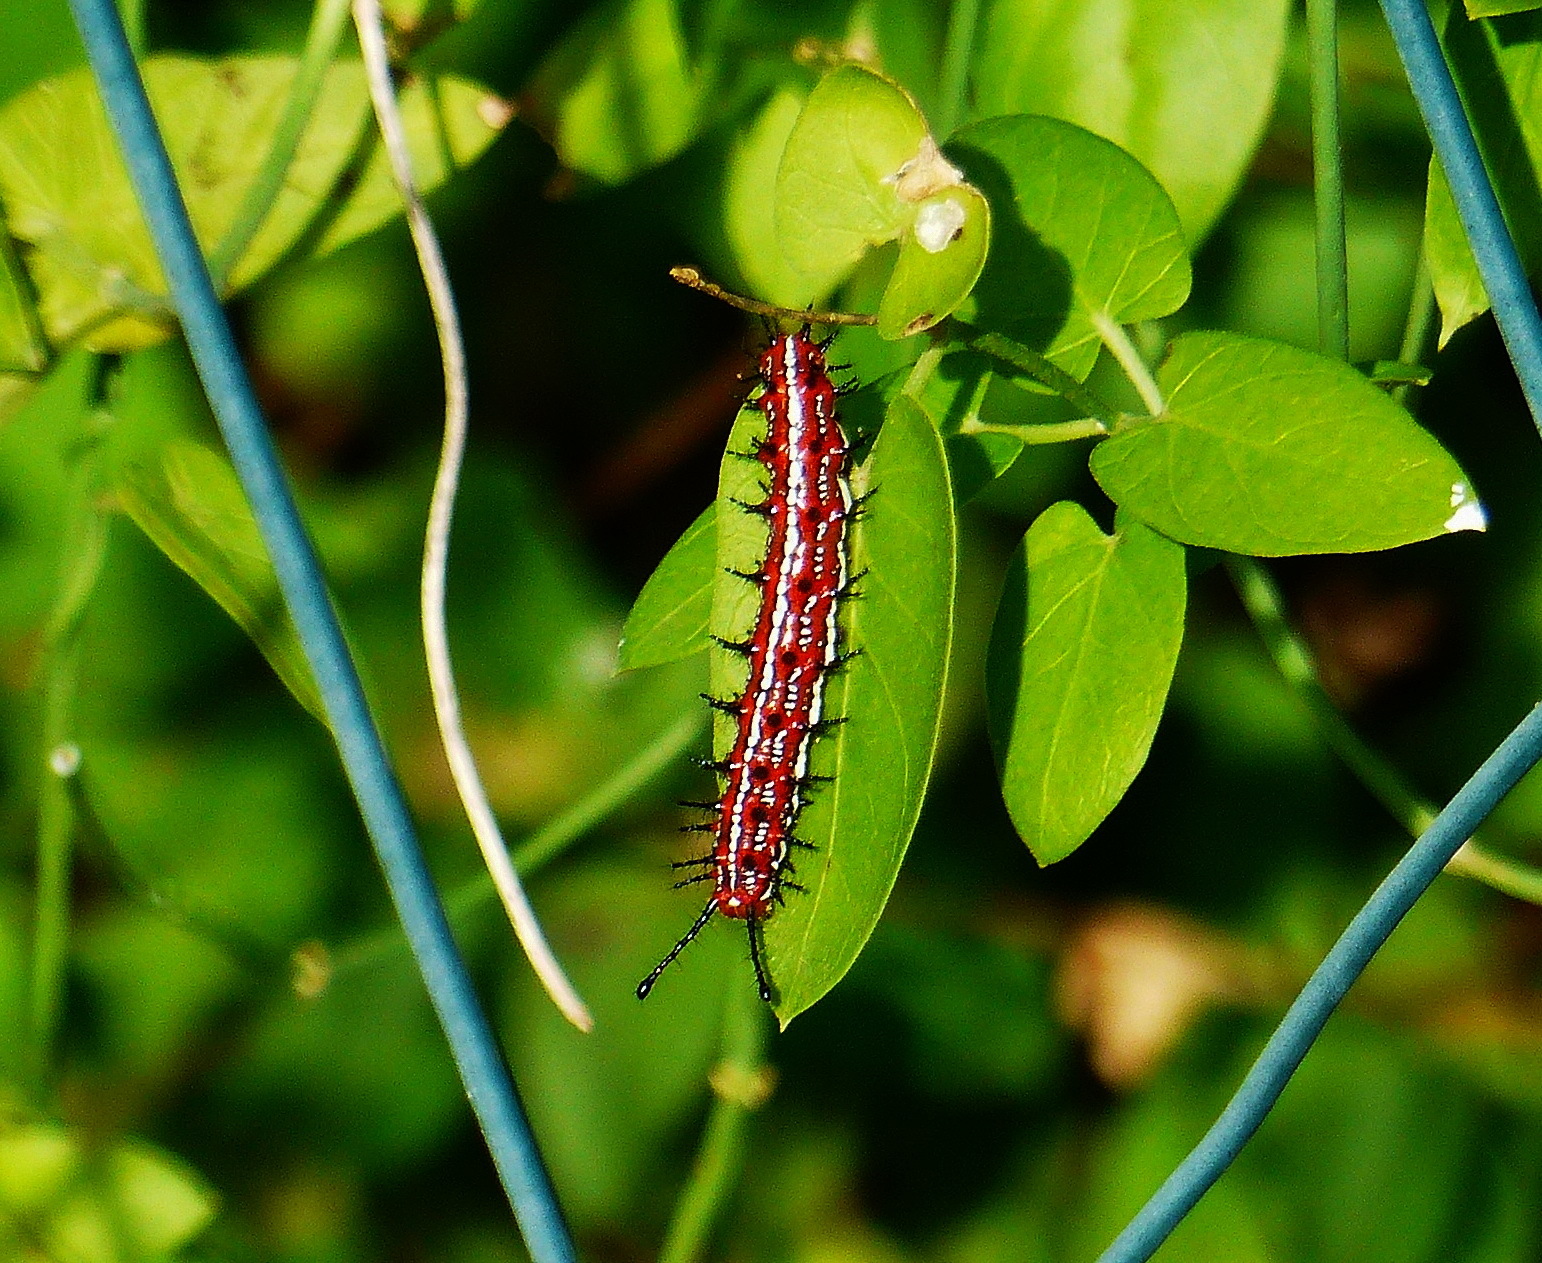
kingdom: Animalia
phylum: Arthropoda
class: Insecta
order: Lepidoptera
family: Nymphalidae
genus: Euptoieta
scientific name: Euptoieta claudia
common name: Variegated fritillary
